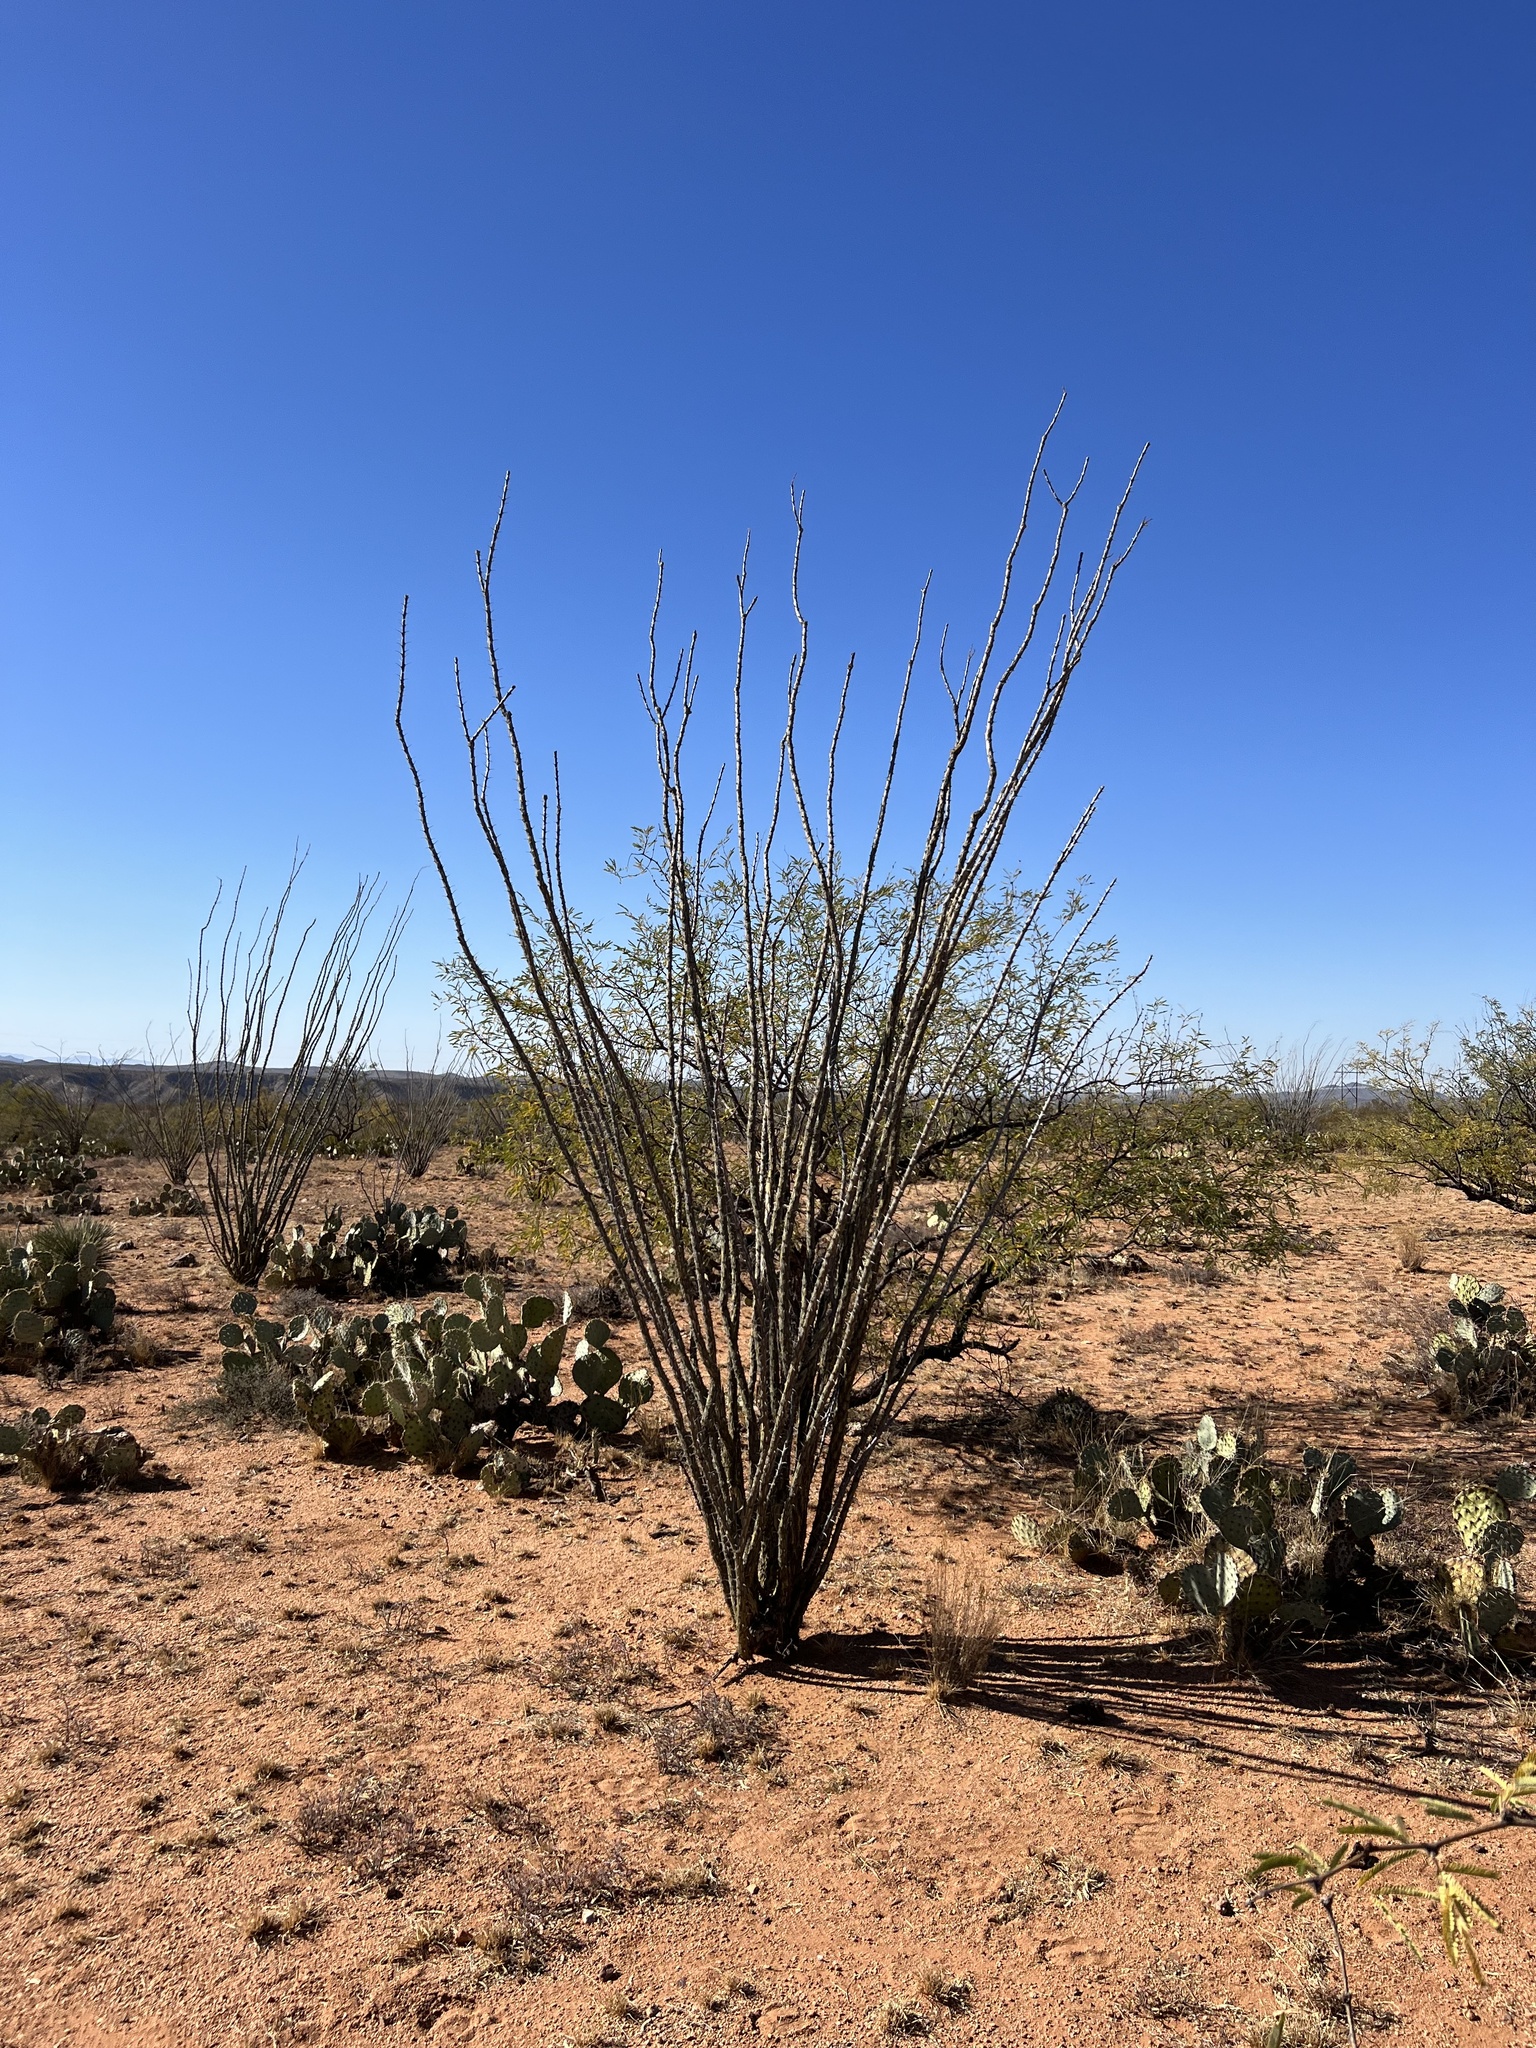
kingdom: Plantae
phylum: Tracheophyta
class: Magnoliopsida
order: Ericales
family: Fouquieriaceae
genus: Fouquieria
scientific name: Fouquieria splendens
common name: Vine-cactus
